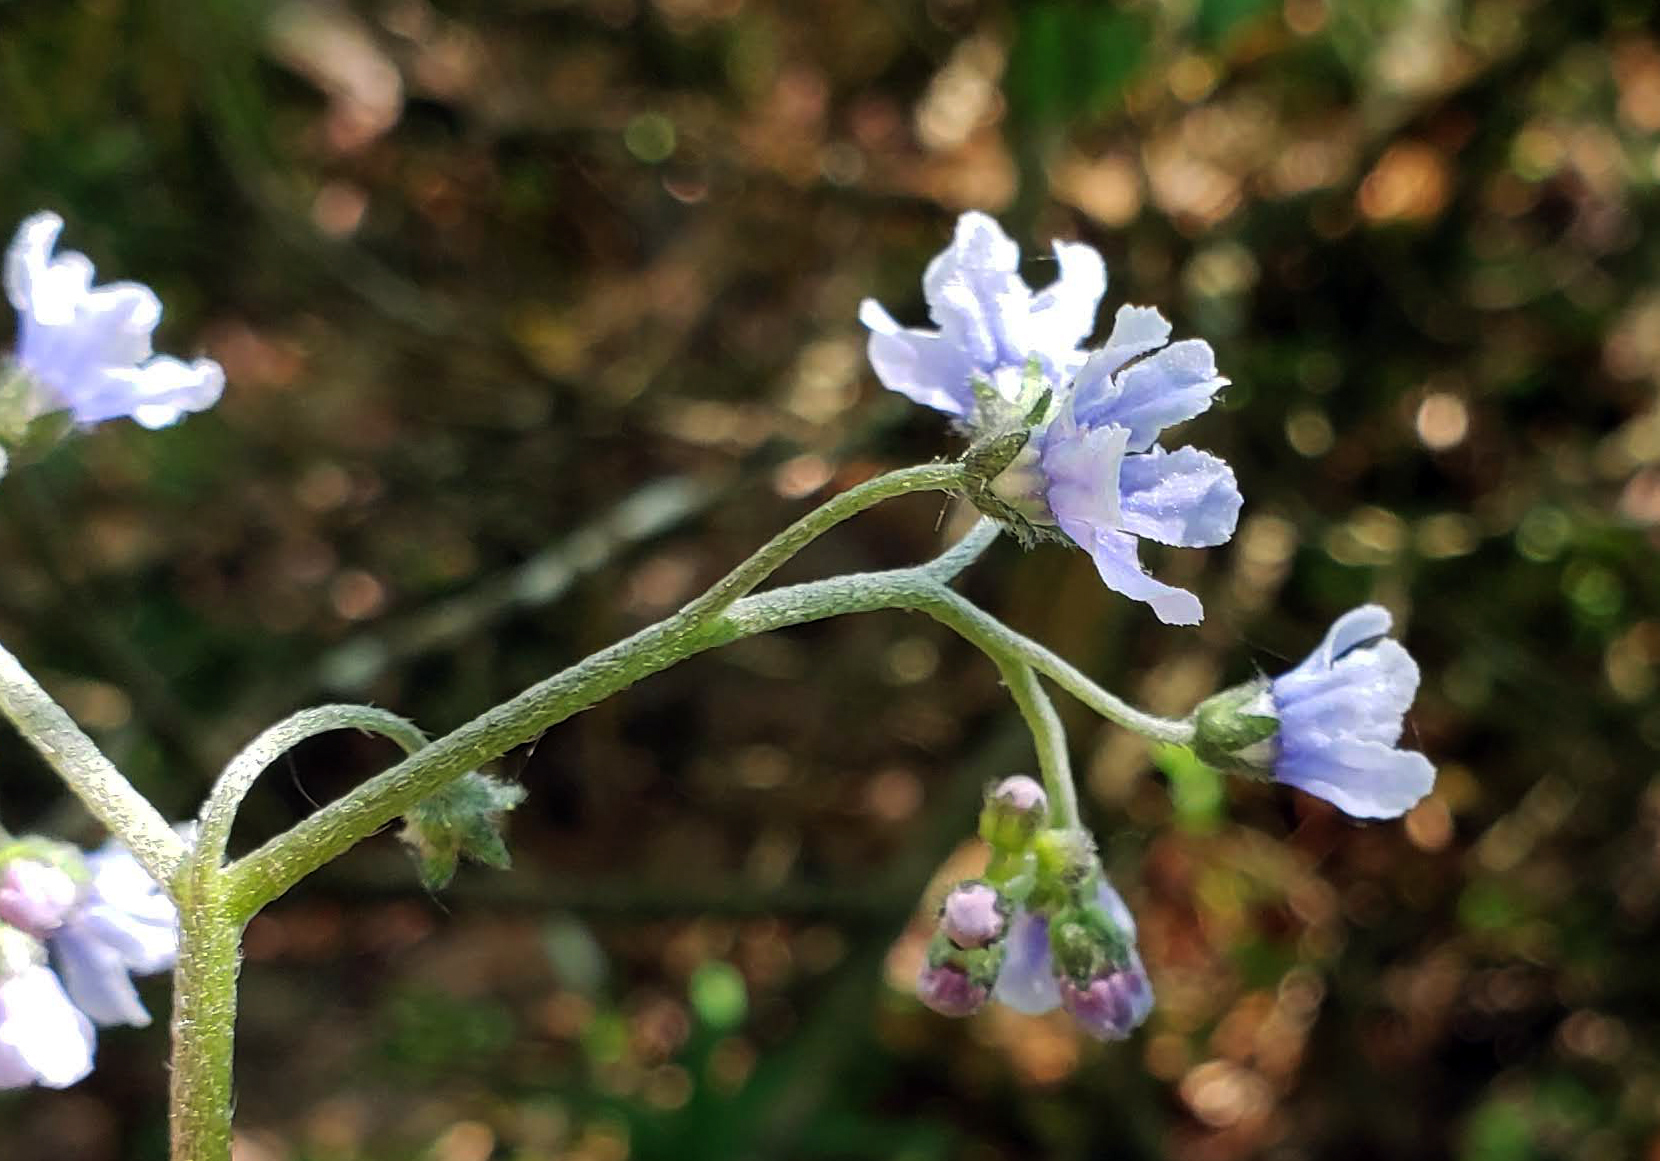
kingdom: Plantae
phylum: Tracheophyta
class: Magnoliopsida
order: Boraginales
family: Boraginaceae
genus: Andersonglossum
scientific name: Andersonglossum boreale
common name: Northern hound's-tongue
